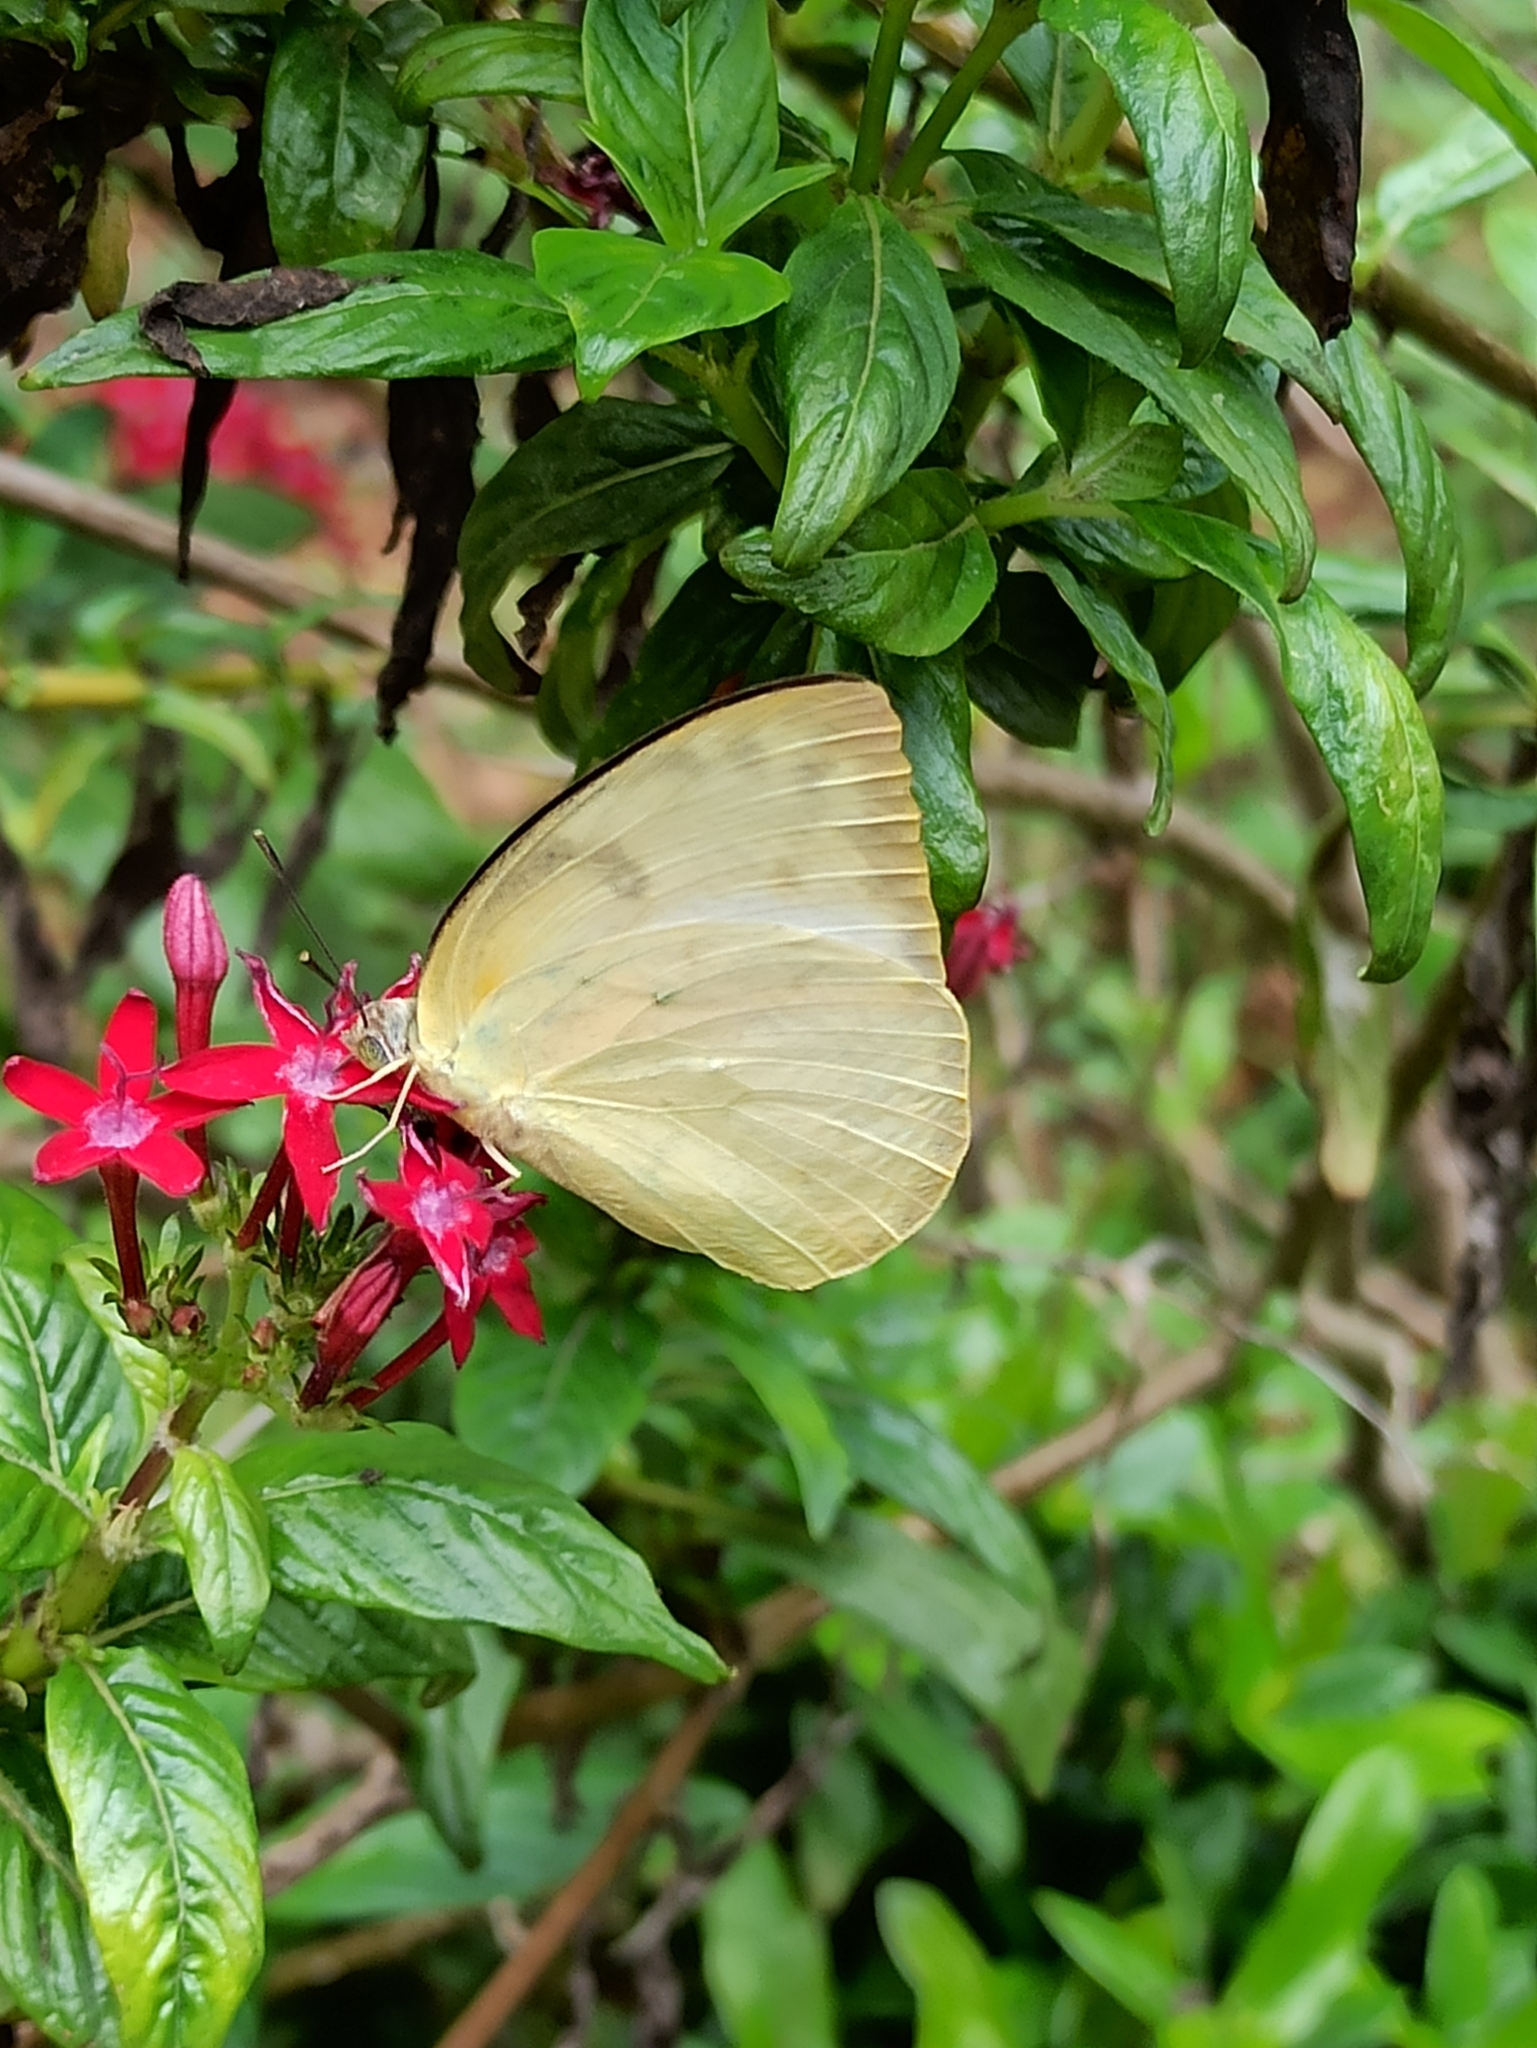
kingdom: Animalia
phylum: Arthropoda
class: Insecta
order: Lepidoptera
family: Pieridae
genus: Catopsilia
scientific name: Catopsilia pomona
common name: Common emigrant
